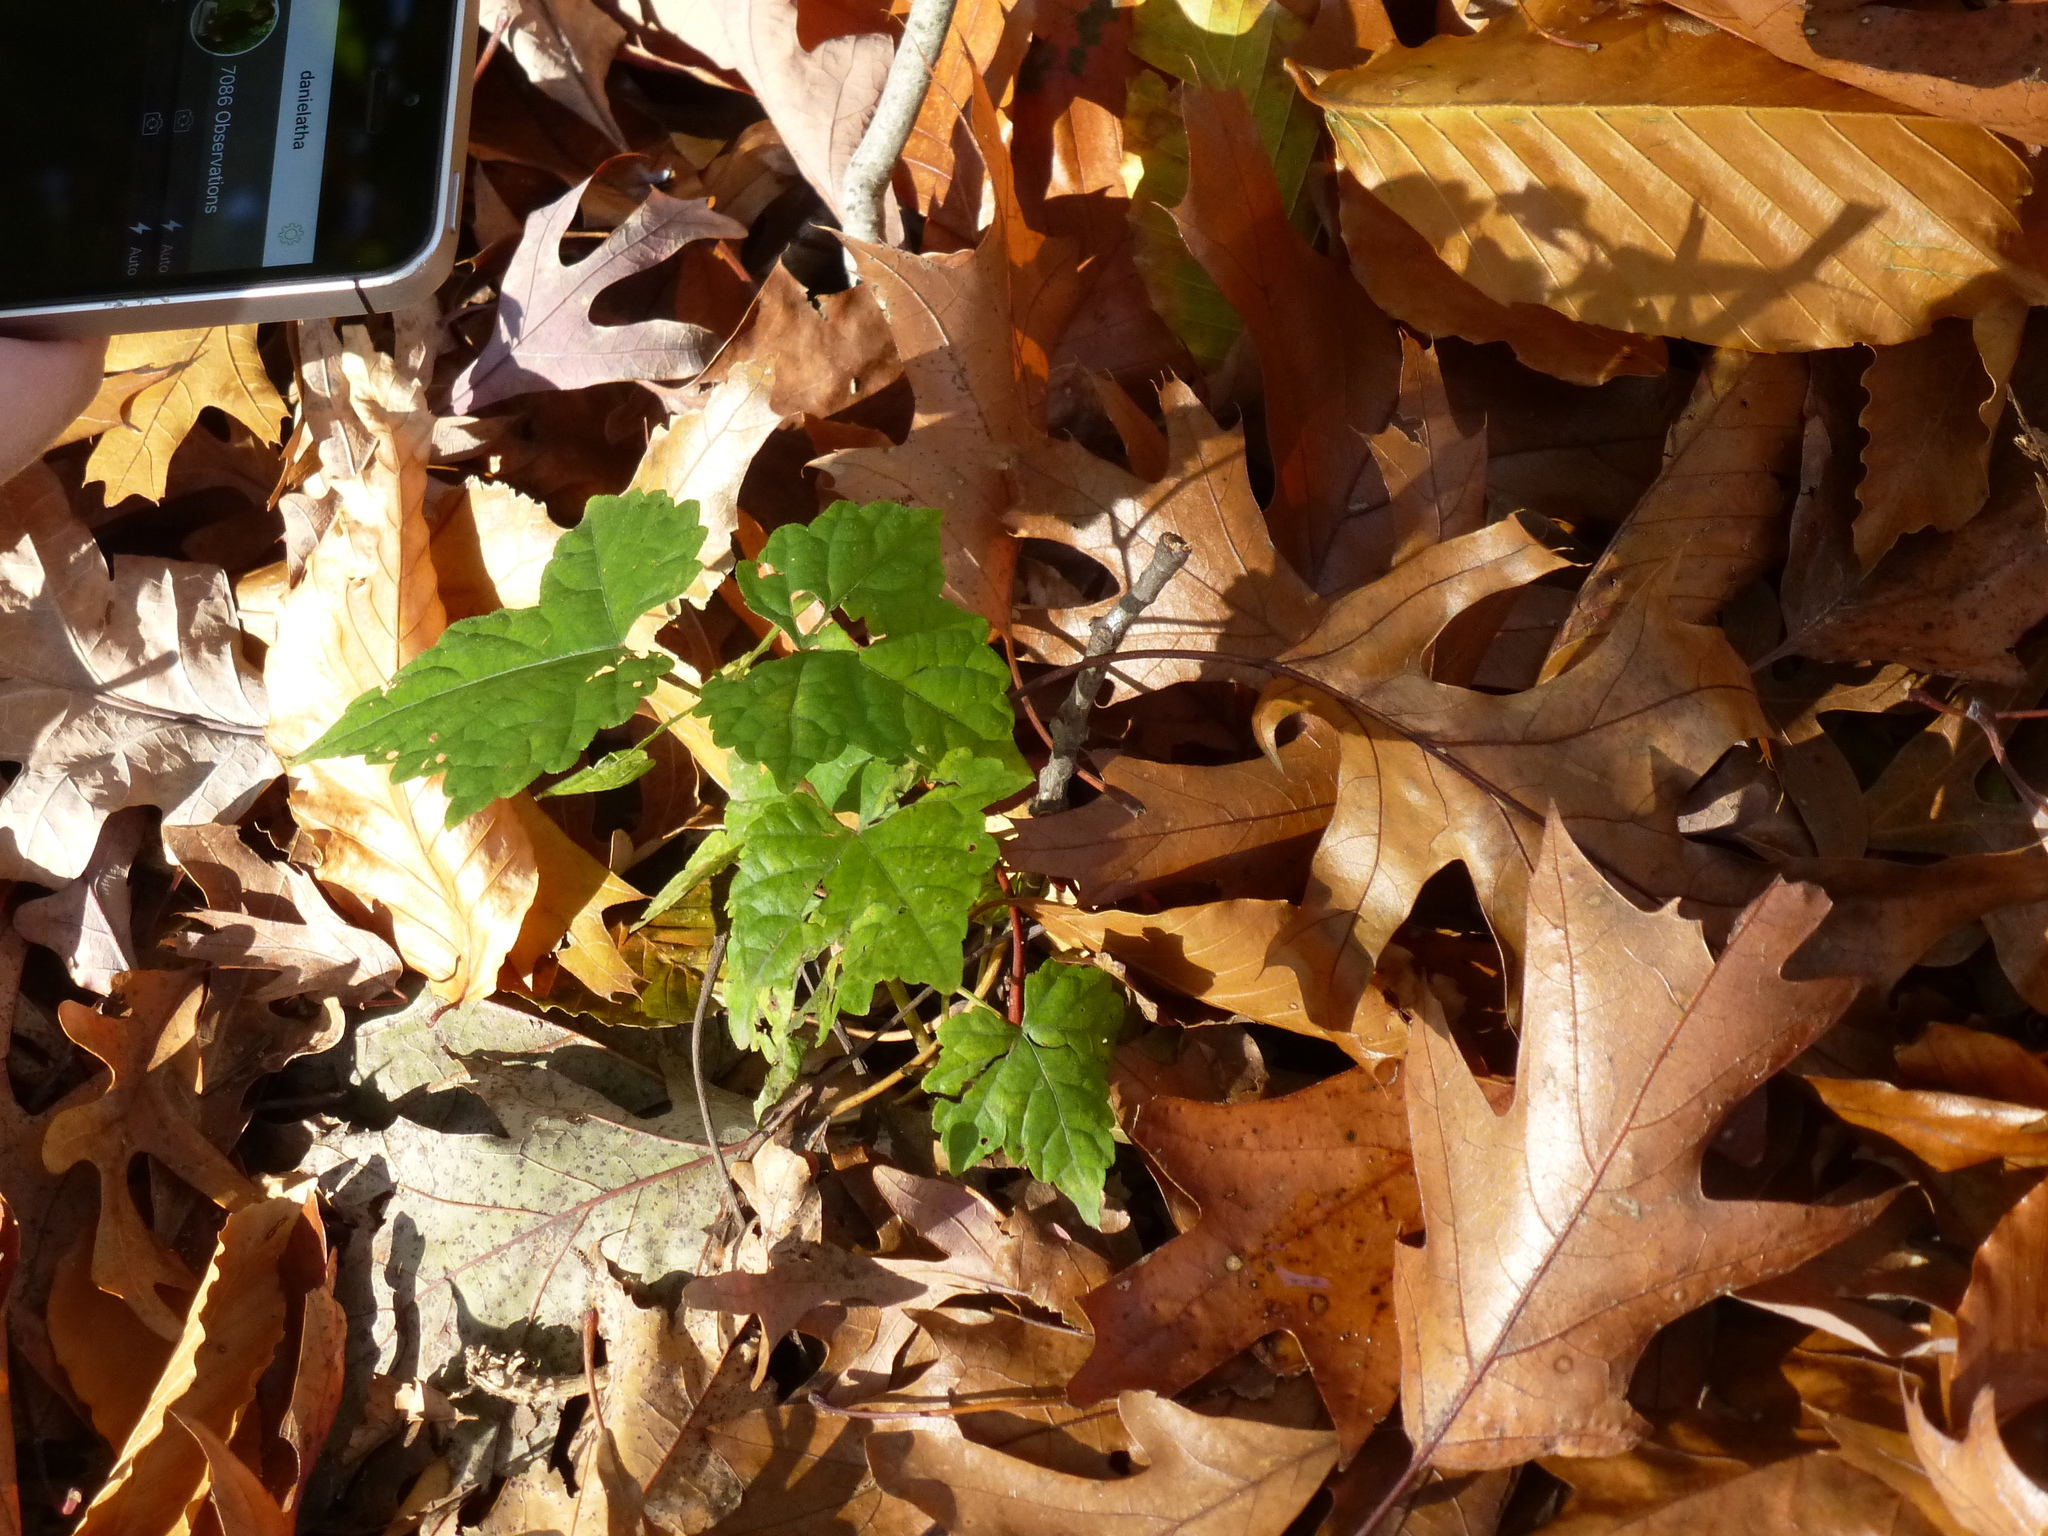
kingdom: Plantae
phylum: Tracheophyta
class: Magnoliopsida
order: Vitales
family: Vitaceae
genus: Ampelopsis
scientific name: Ampelopsis glandulosa
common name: Amur peppervine
